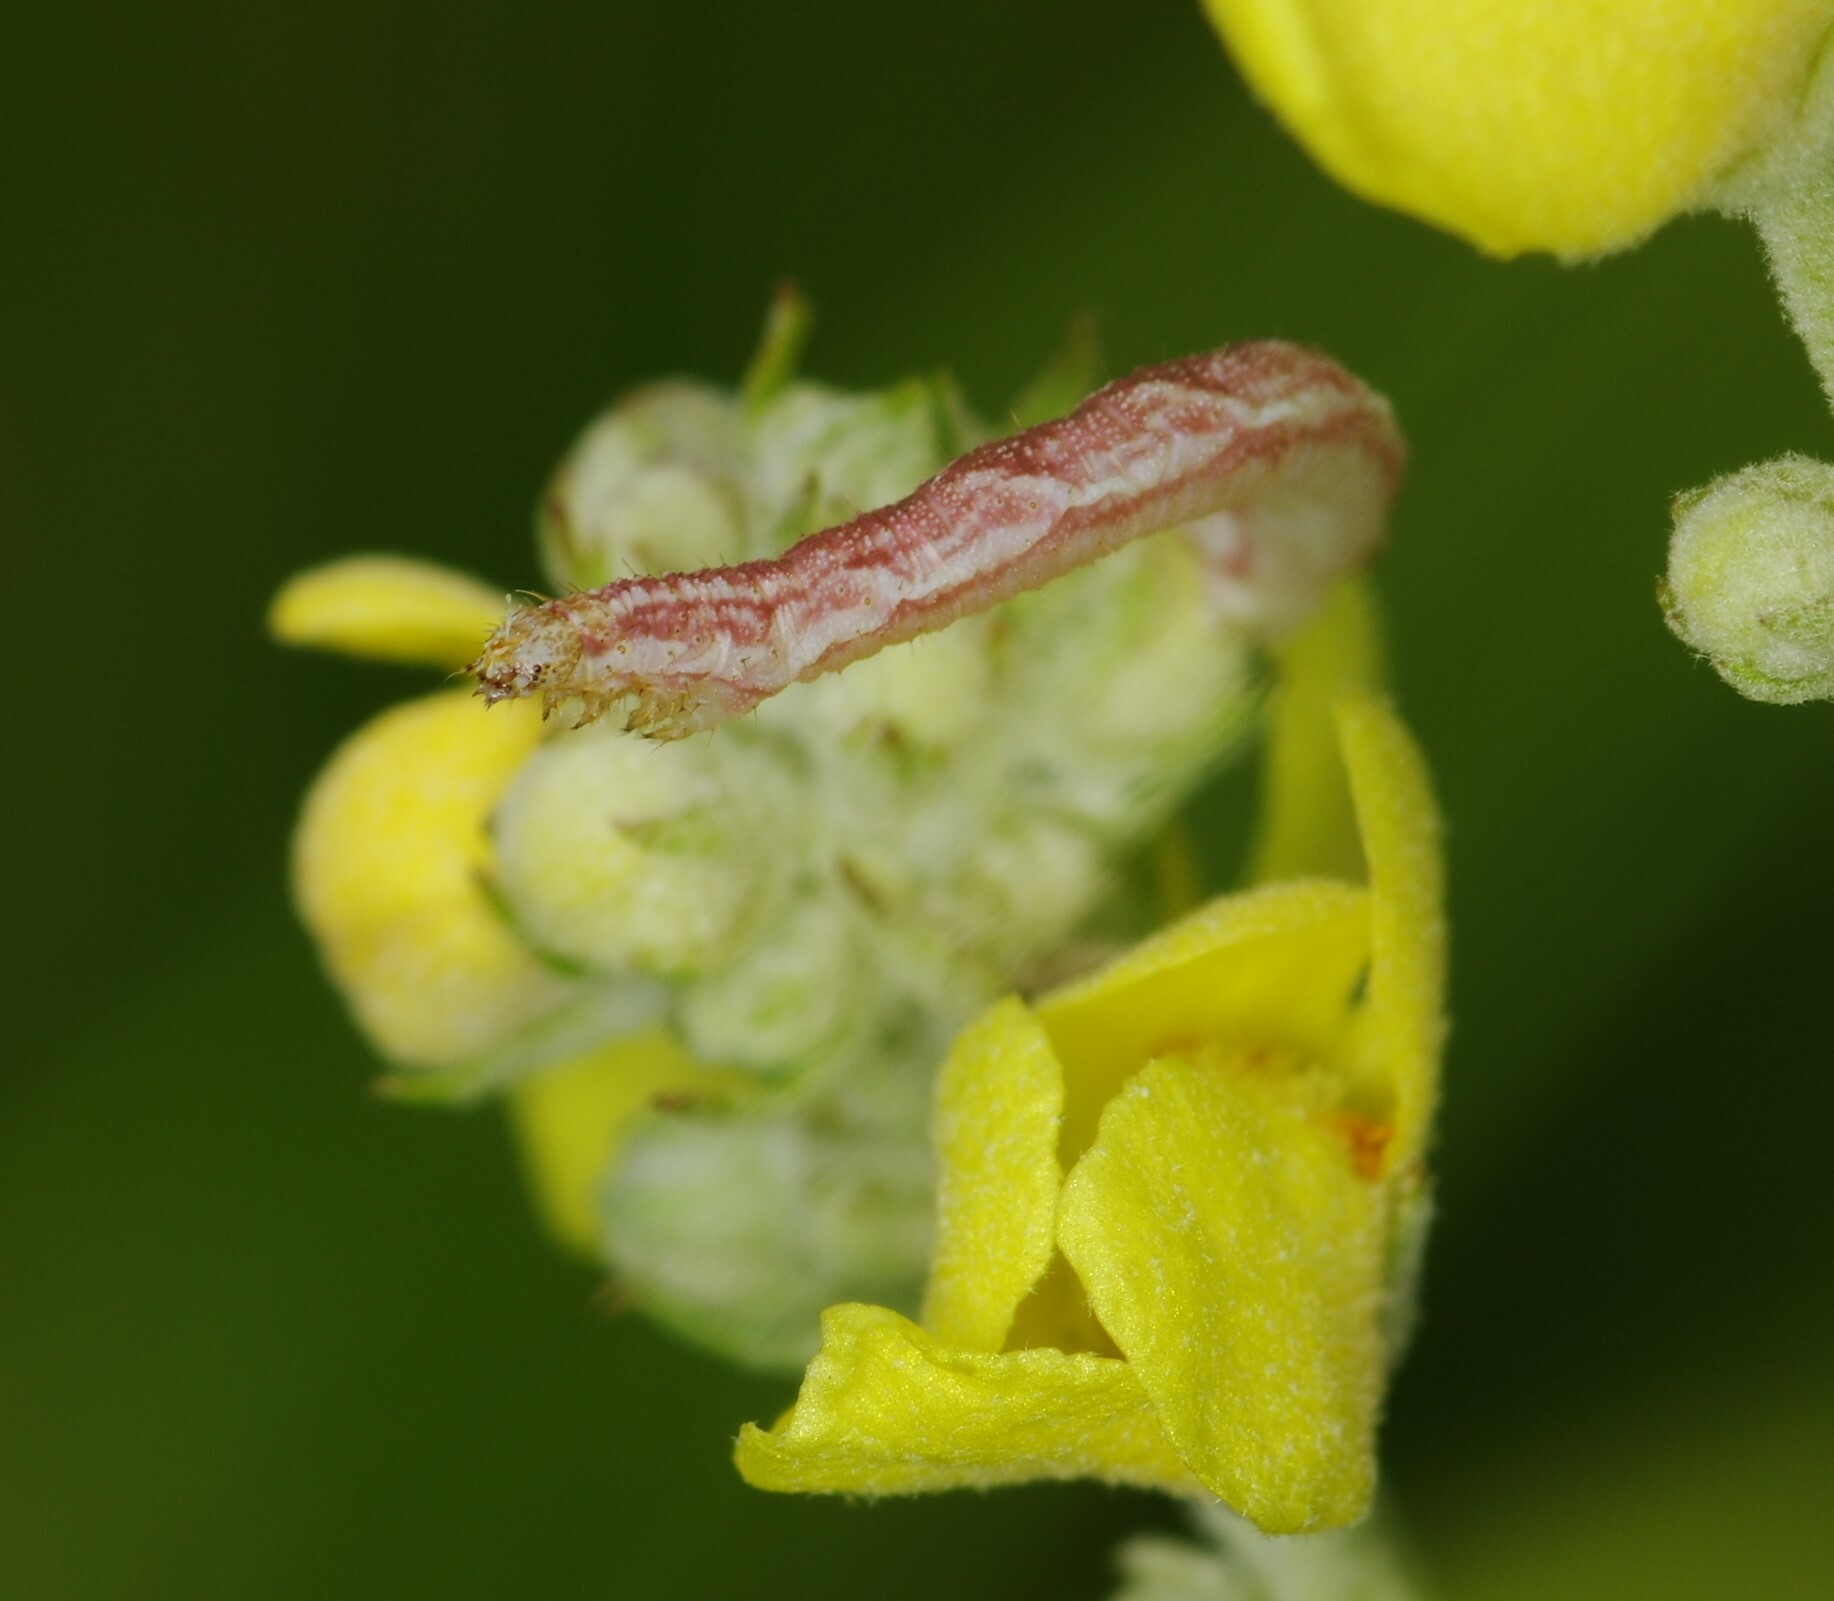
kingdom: Animalia
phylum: Arthropoda
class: Insecta
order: Lepidoptera
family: Geometridae
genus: Eupithecia
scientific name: Eupithecia satyrata
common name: Satyr pug
